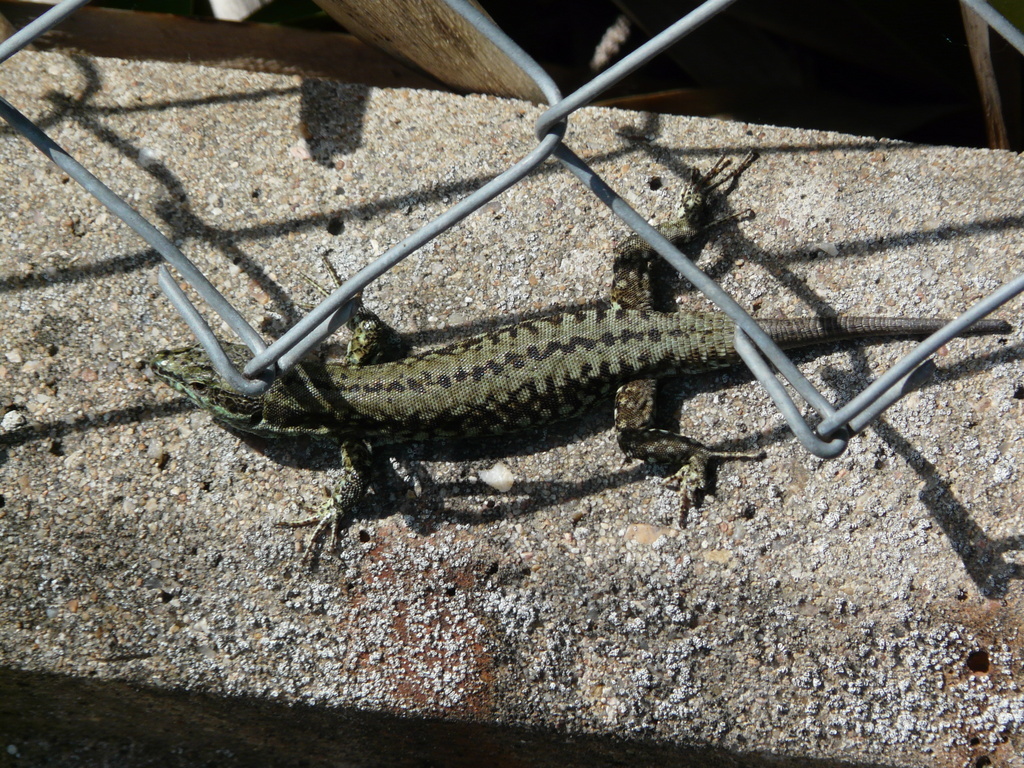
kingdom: Animalia
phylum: Chordata
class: Squamata
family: Lacertidae
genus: Podarcis
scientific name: Podarcis muralis
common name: Common wall lizard
